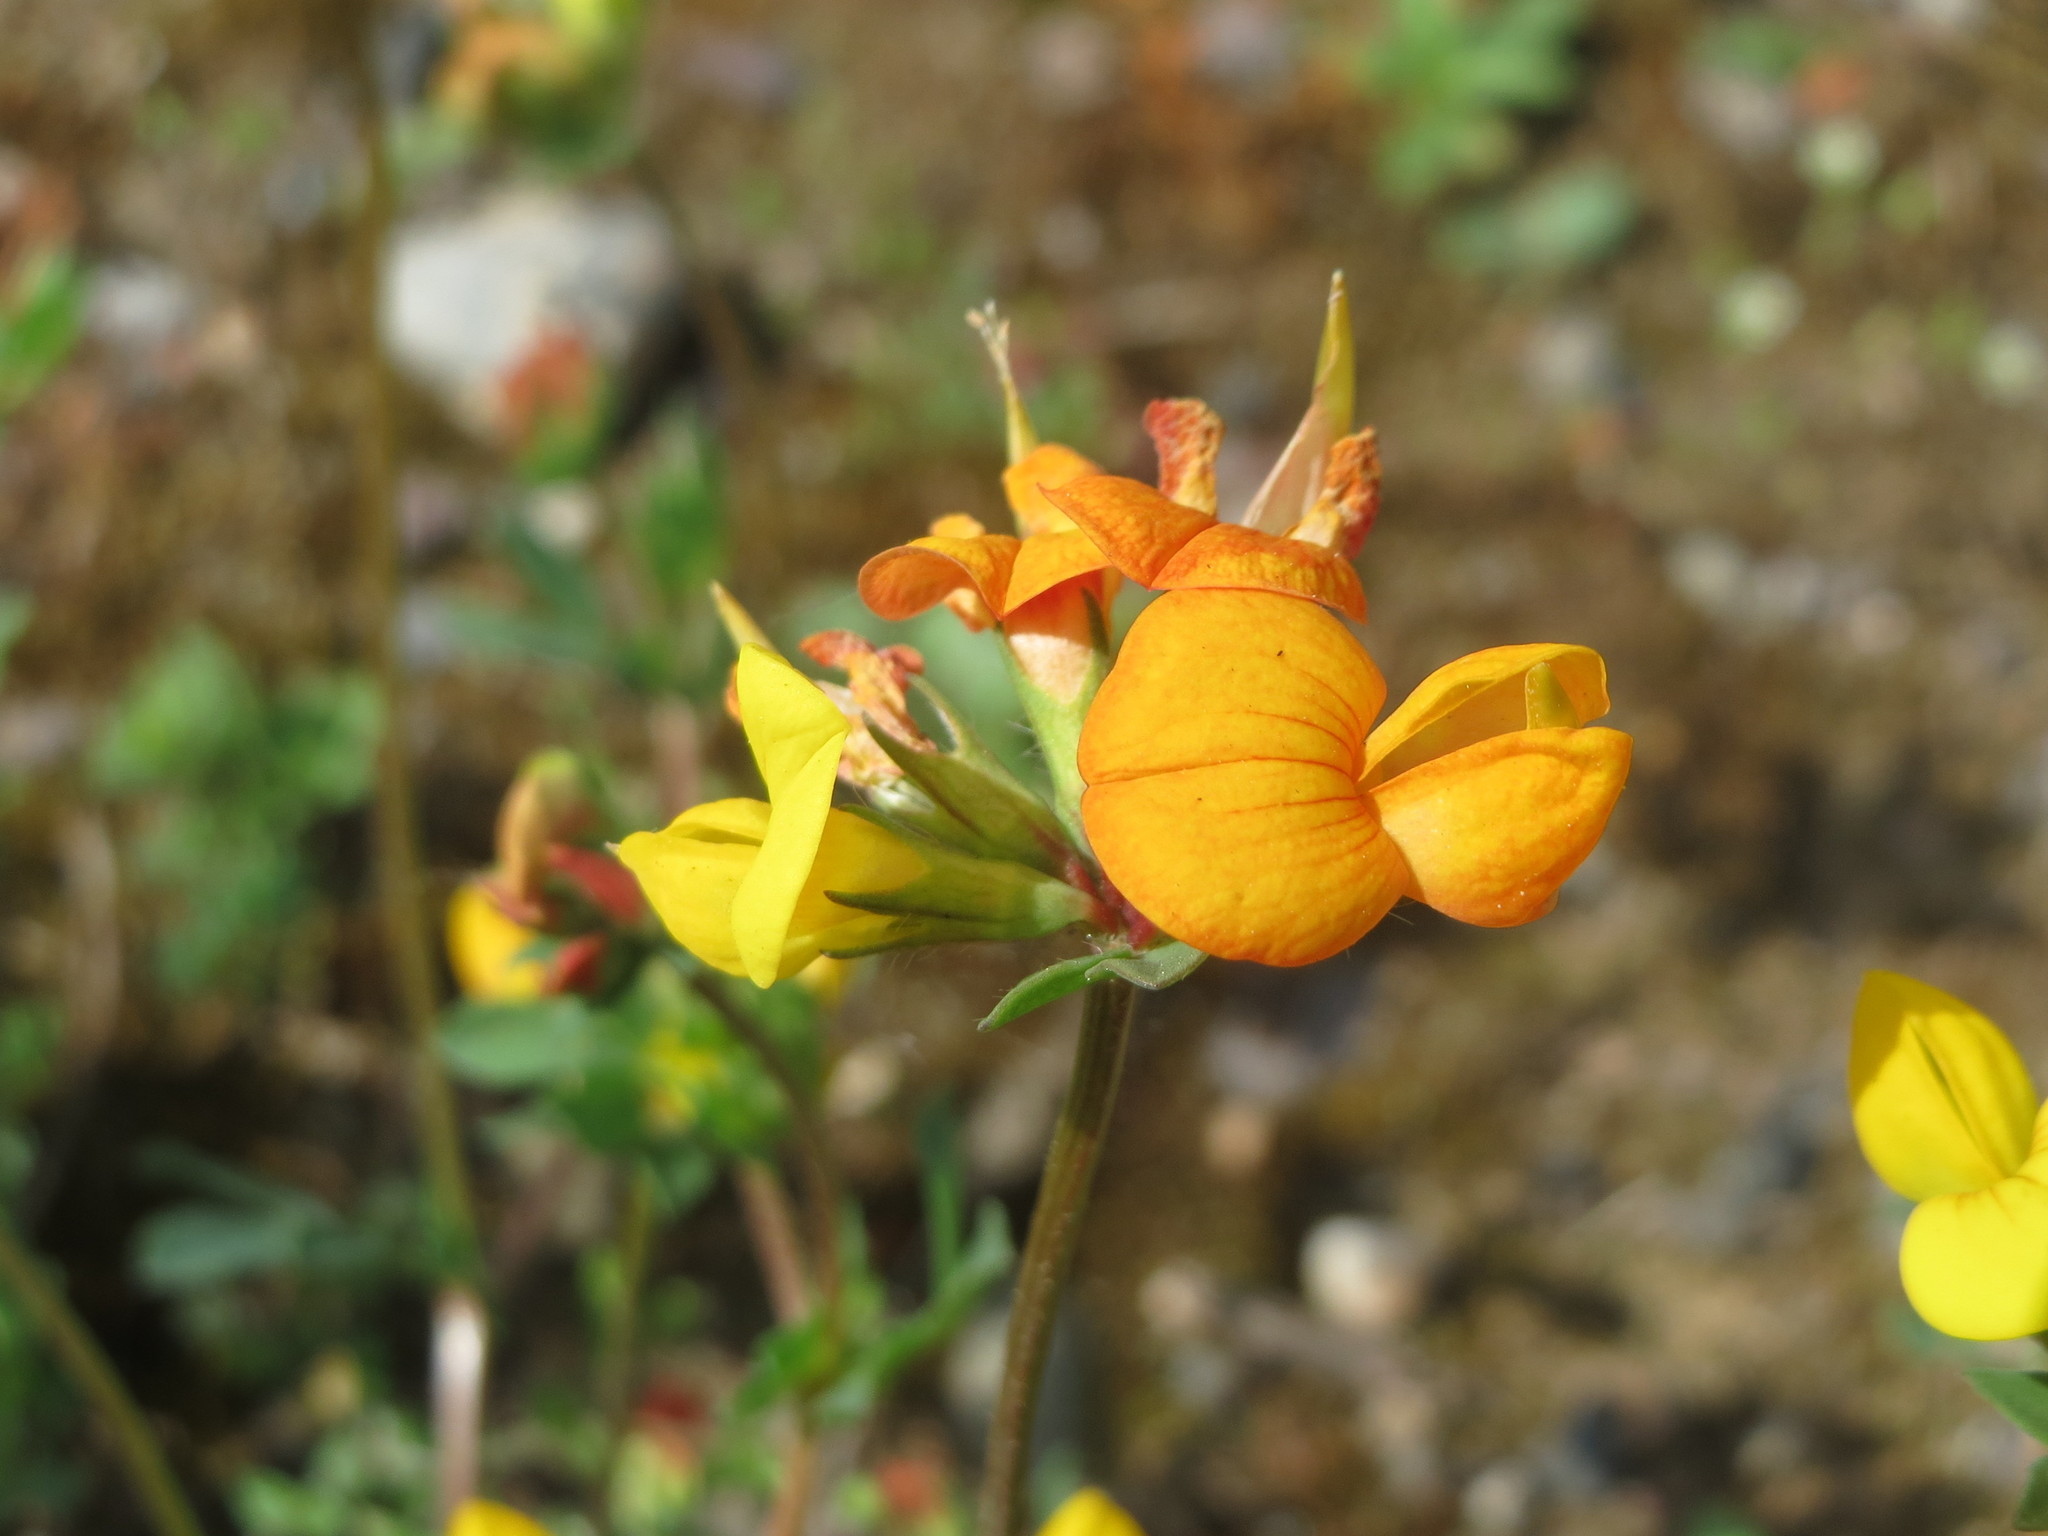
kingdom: Plantae
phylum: Tracheophyta
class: Magnoliopsida
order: Fabales
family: Fabaceae
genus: Lotus
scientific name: Lotus corniculatus
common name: Common bird's-foot-trefoil
